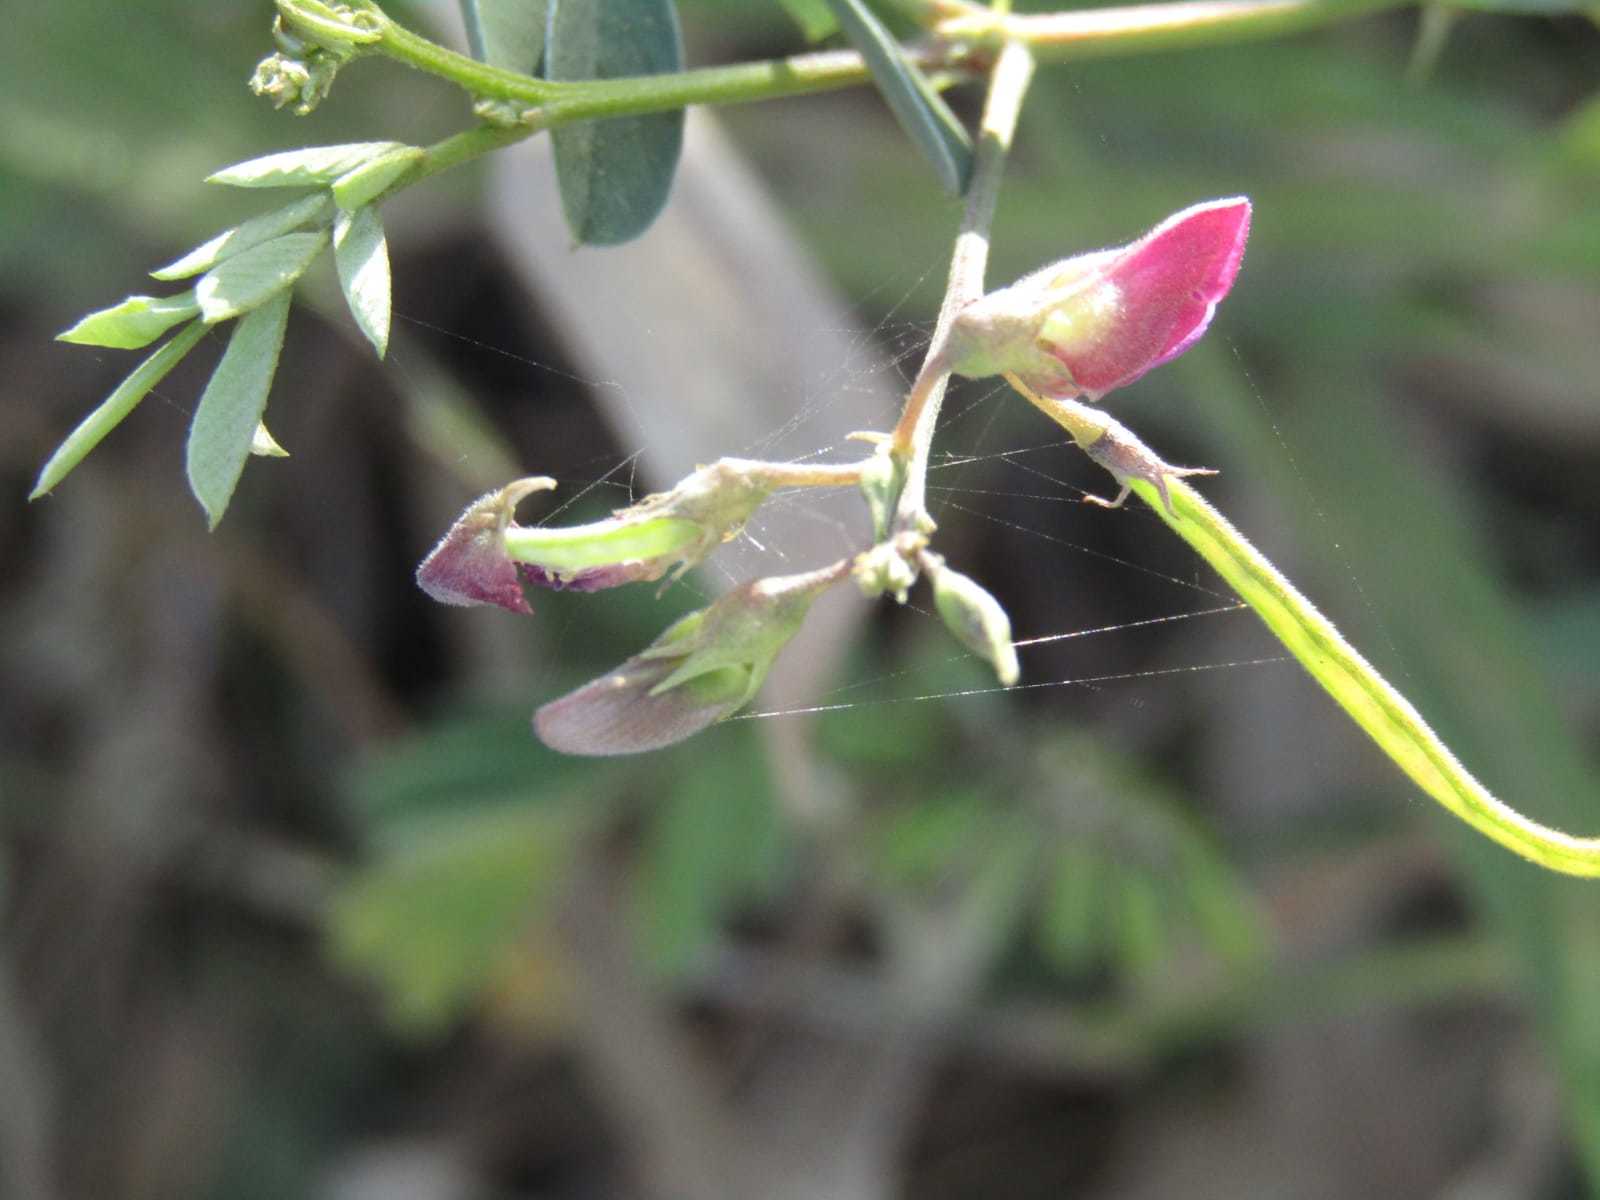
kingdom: Plantae
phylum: Tracheophyta
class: Magnoliopsida
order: Fabales
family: Fabaceae
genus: Tephrosia
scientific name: Tephrosia cinerea
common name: Ashen hoarypea
